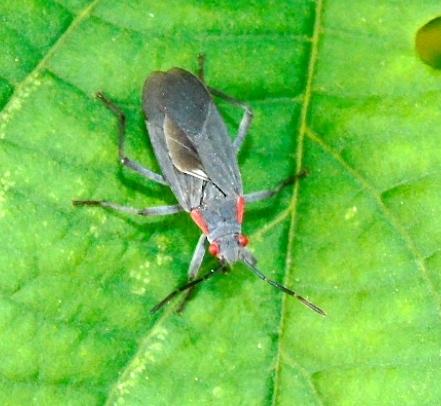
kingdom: Animalia
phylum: Arthropoda
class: Insecta
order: Hemiptera
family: Rhopalidae
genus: Jadera
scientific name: Jadera haematoloma
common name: Red-shouldered bug
